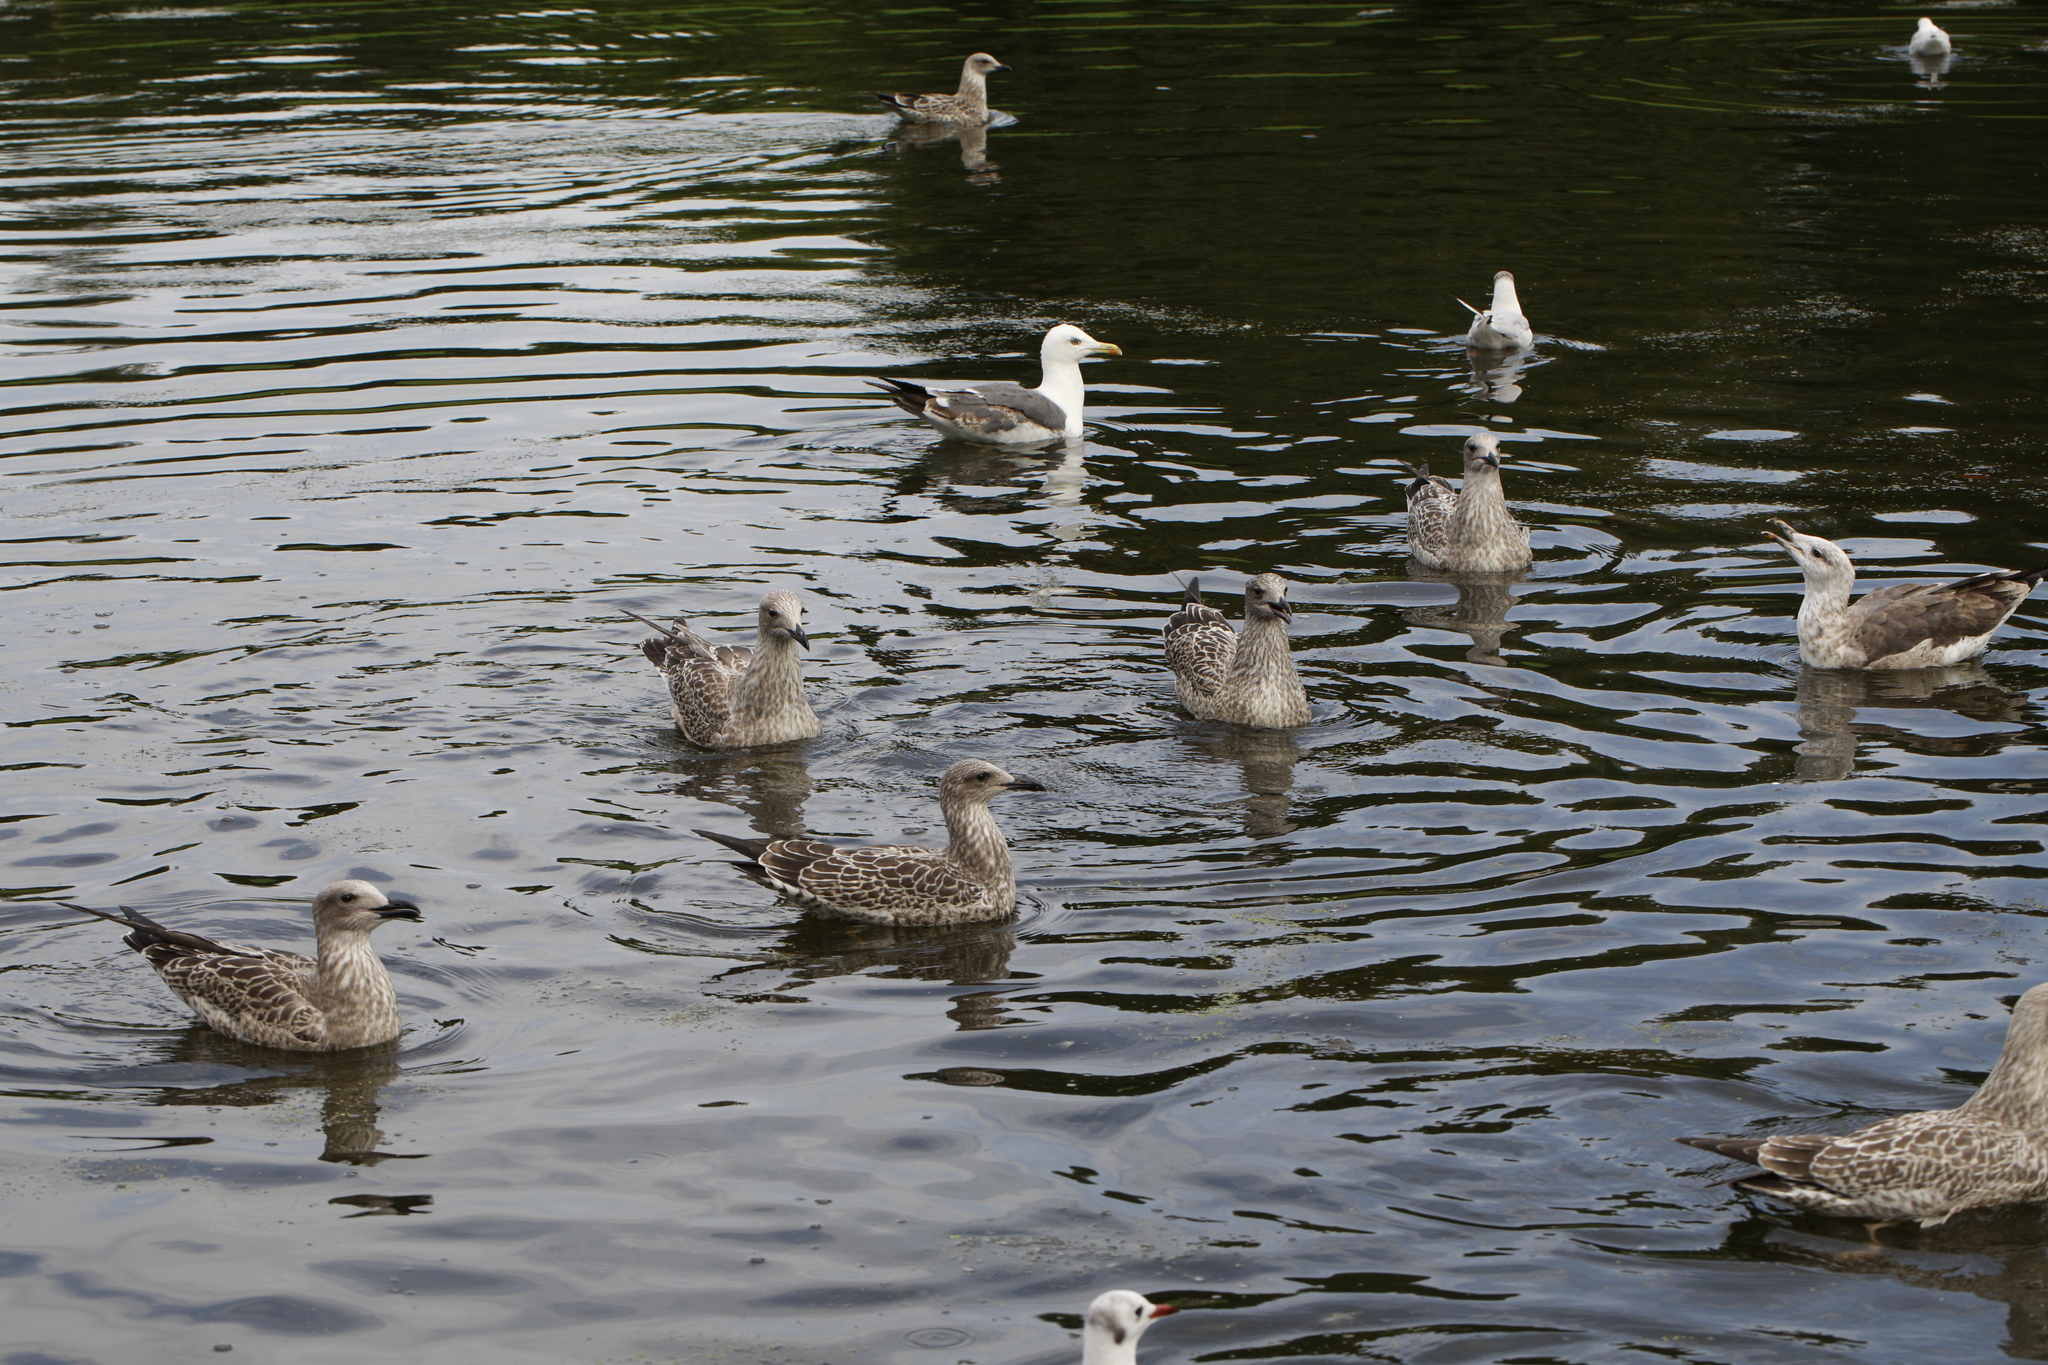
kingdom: Animalia
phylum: Chordata
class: Aves
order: Charadriiformes
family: Laridae
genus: Larus
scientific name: Larus fuscus
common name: Lesser black-backed gull
